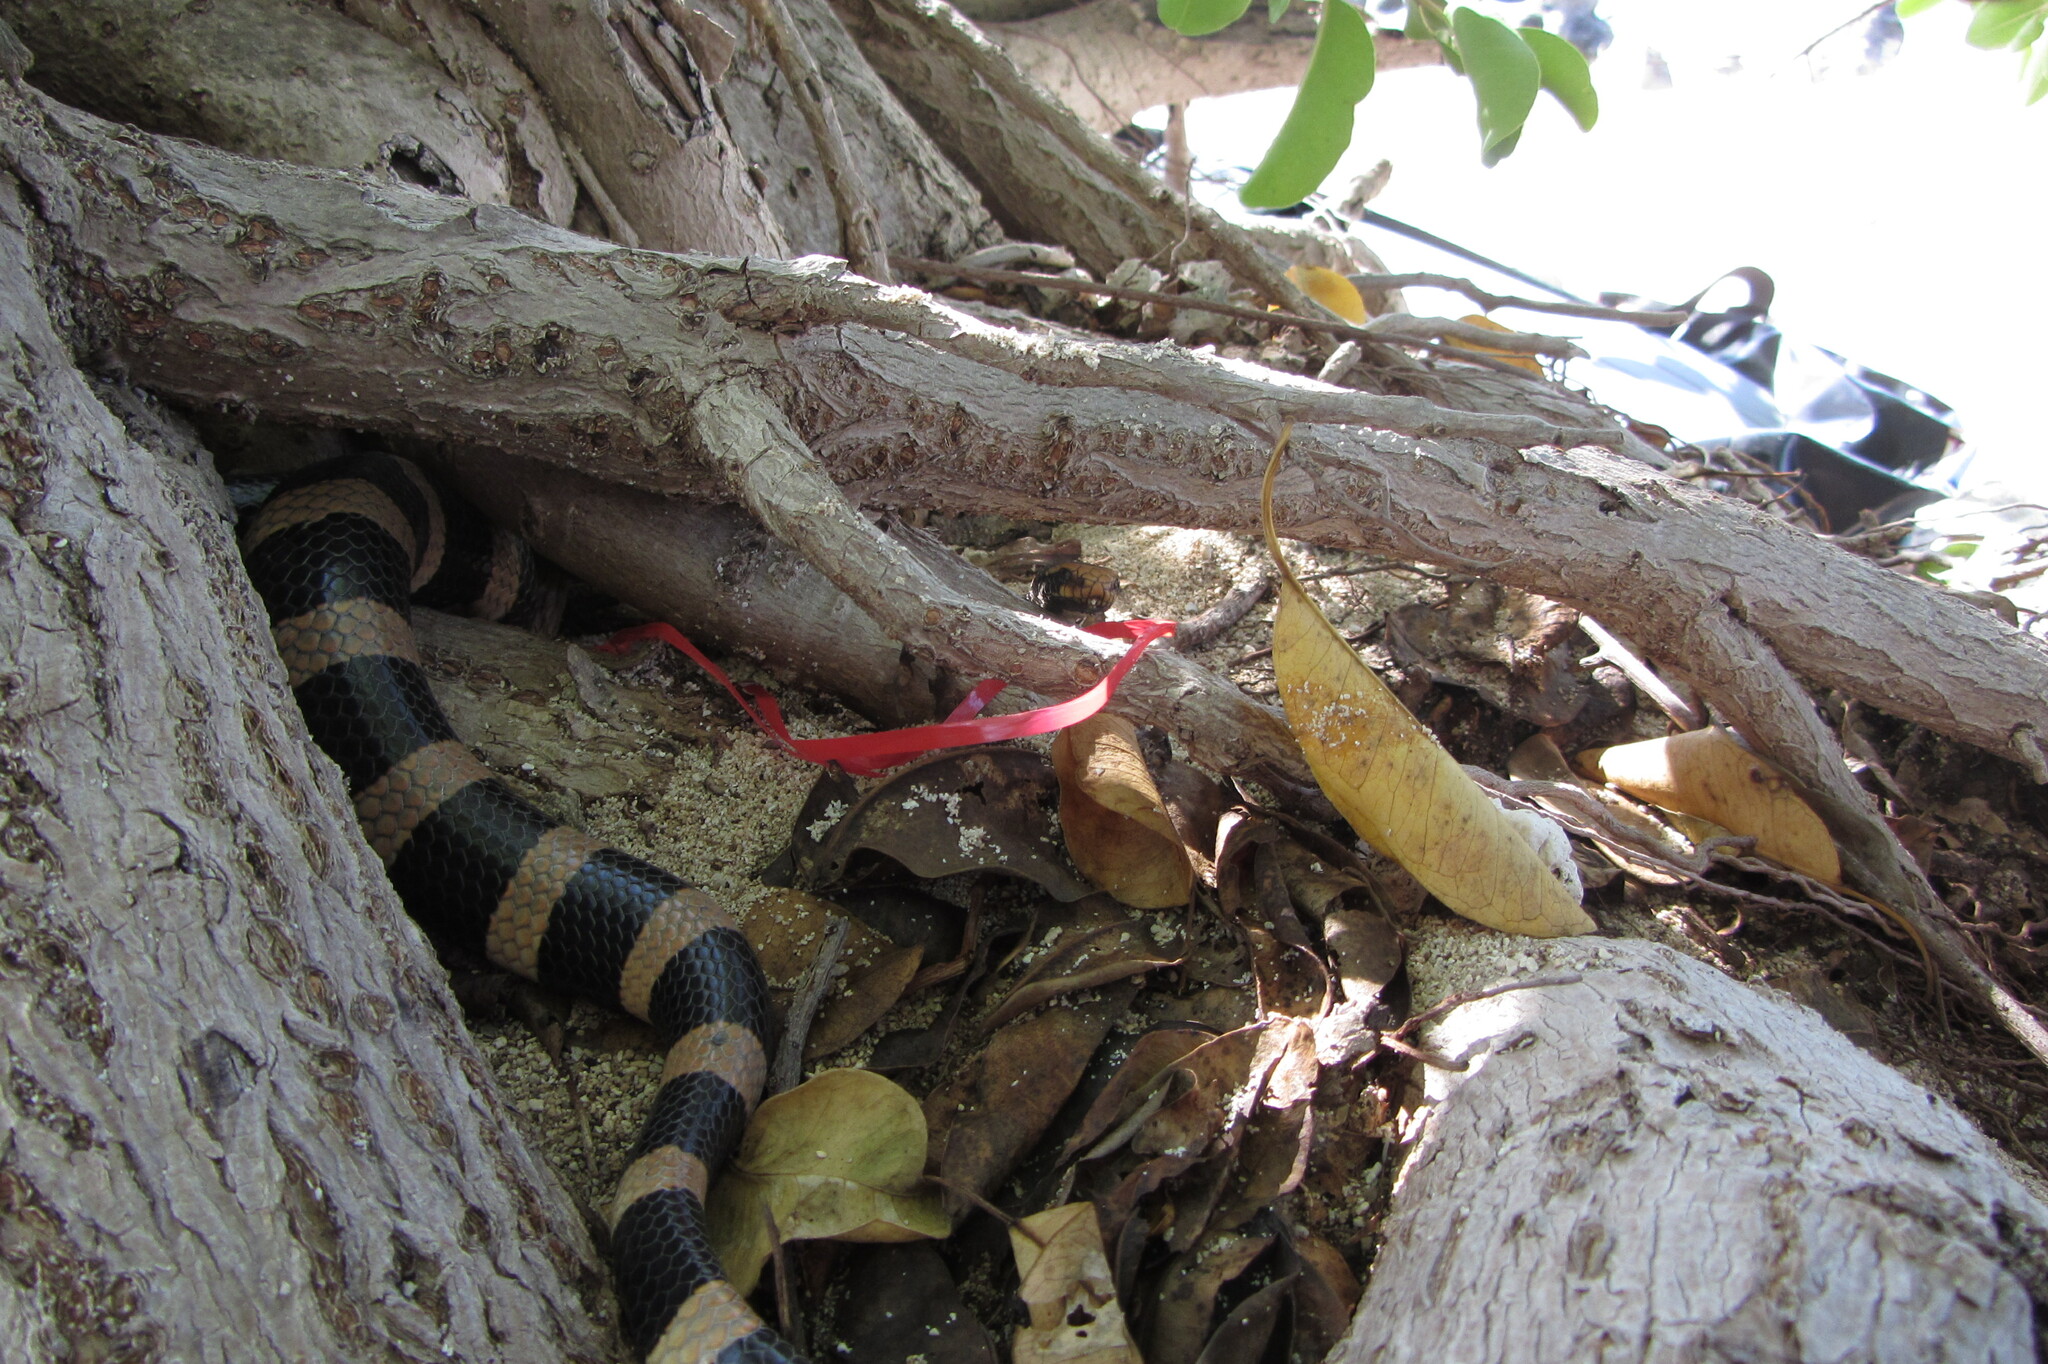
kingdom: Animalia
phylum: Chordata
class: Squamata
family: Elapidae
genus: Laticauda
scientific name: Laticauda saintgironsi
